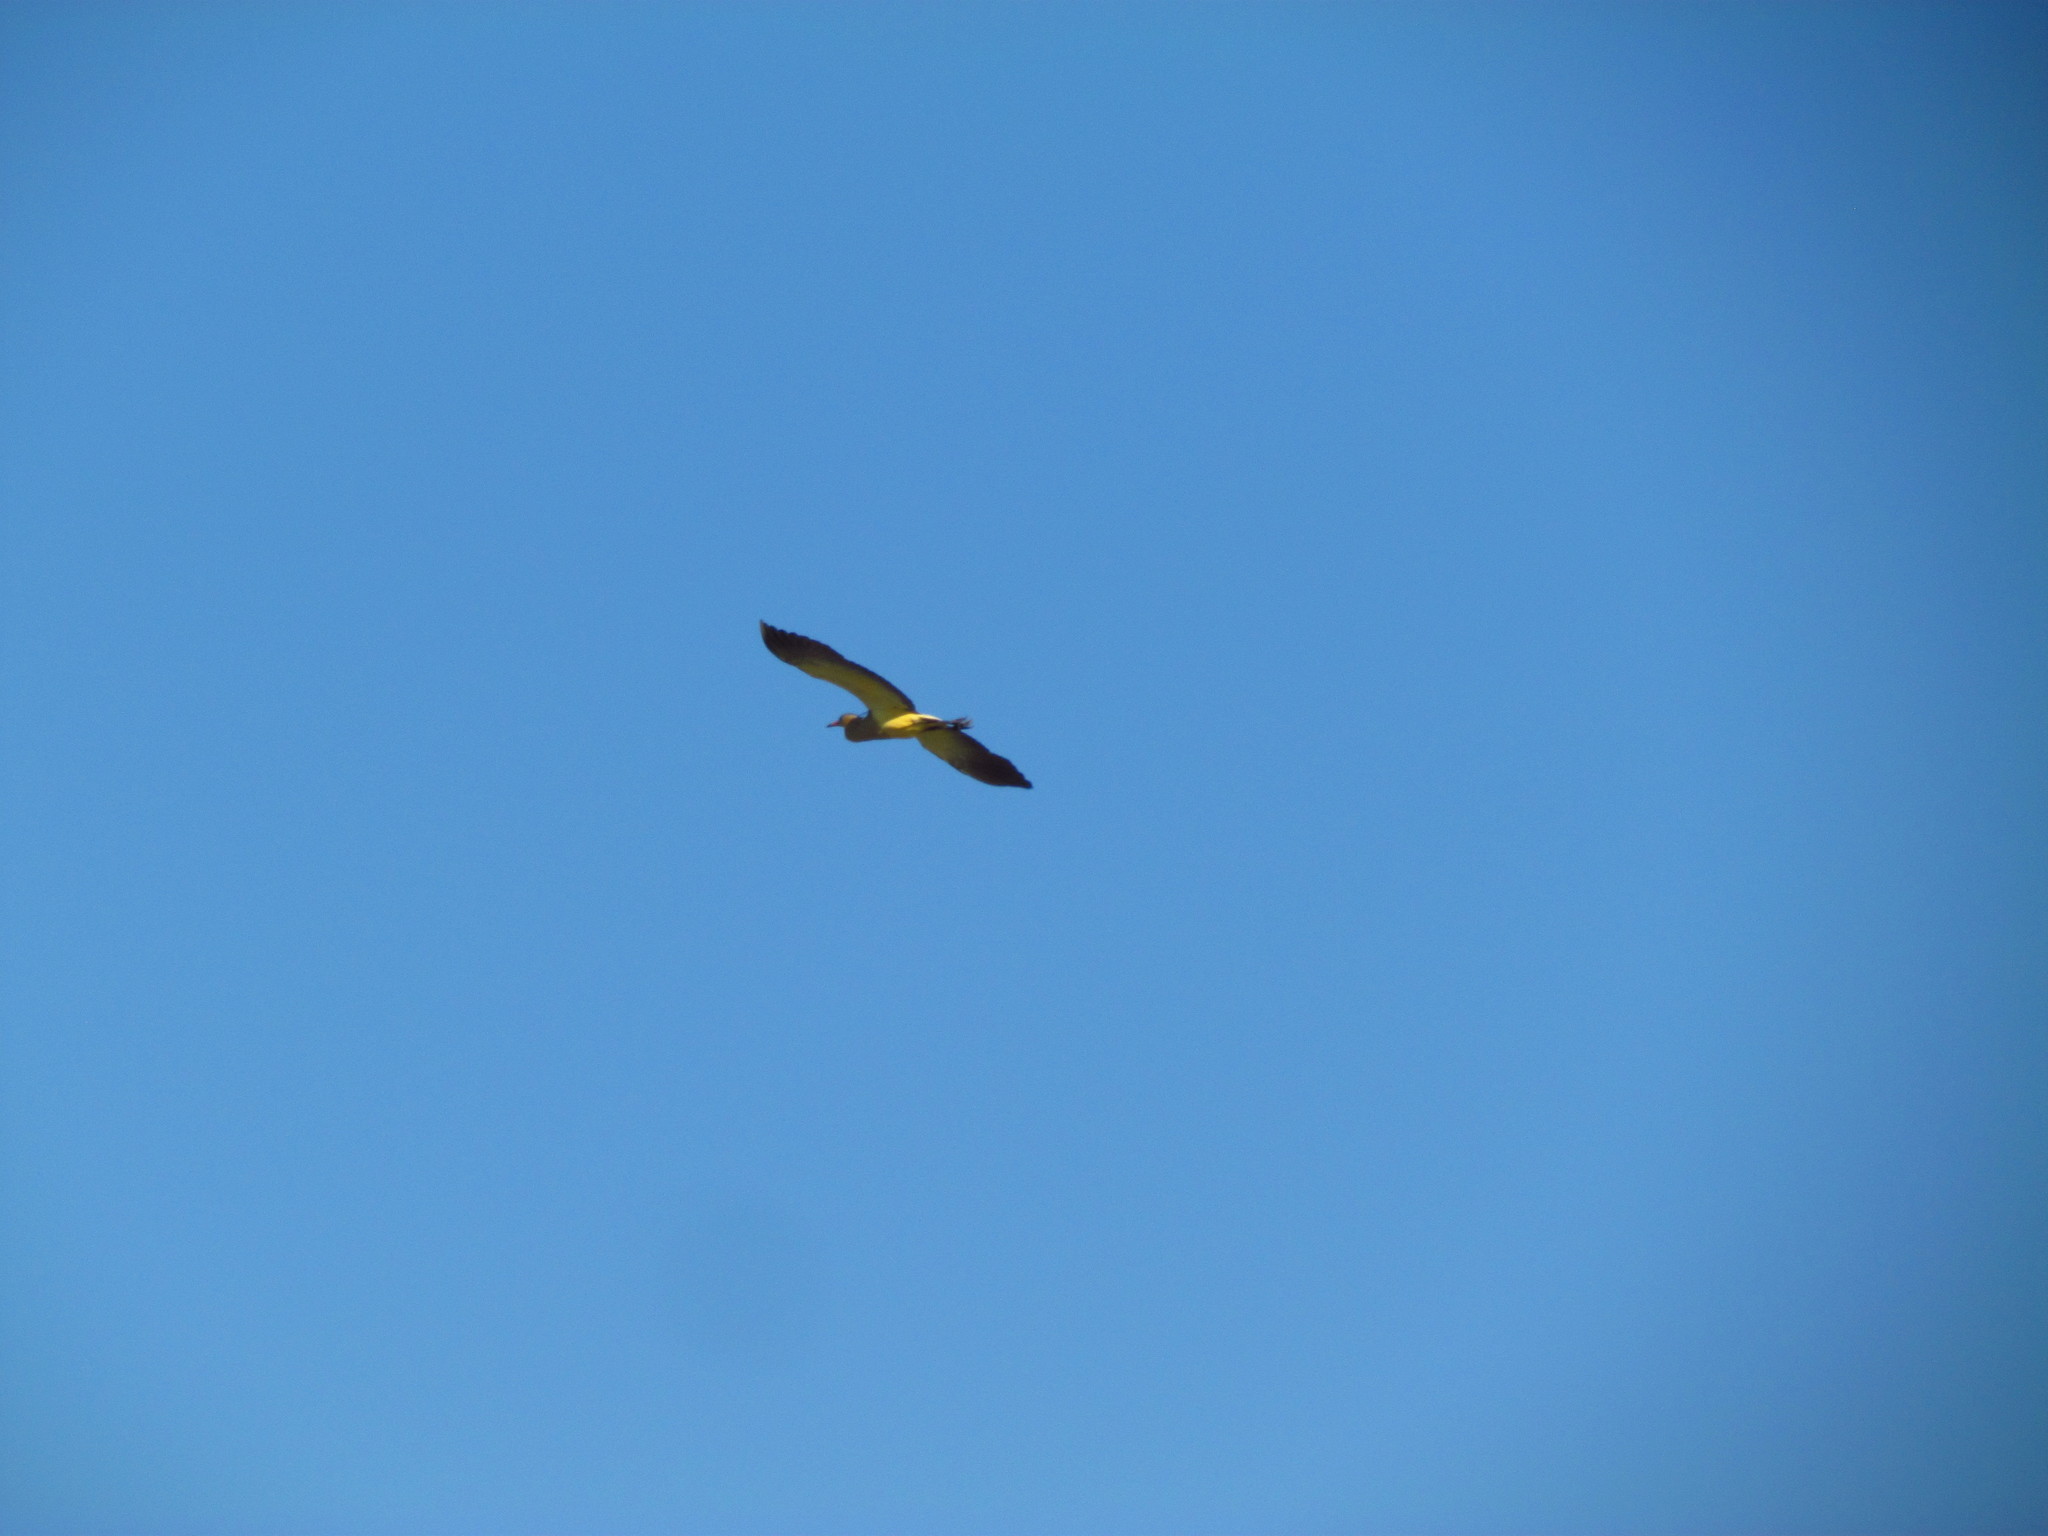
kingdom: Animalia
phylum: Chordata
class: Aves
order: Pelecaniformes
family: Ardeidae
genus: Syrigma
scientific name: Syrigma sibilatrix
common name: Whistling heron
